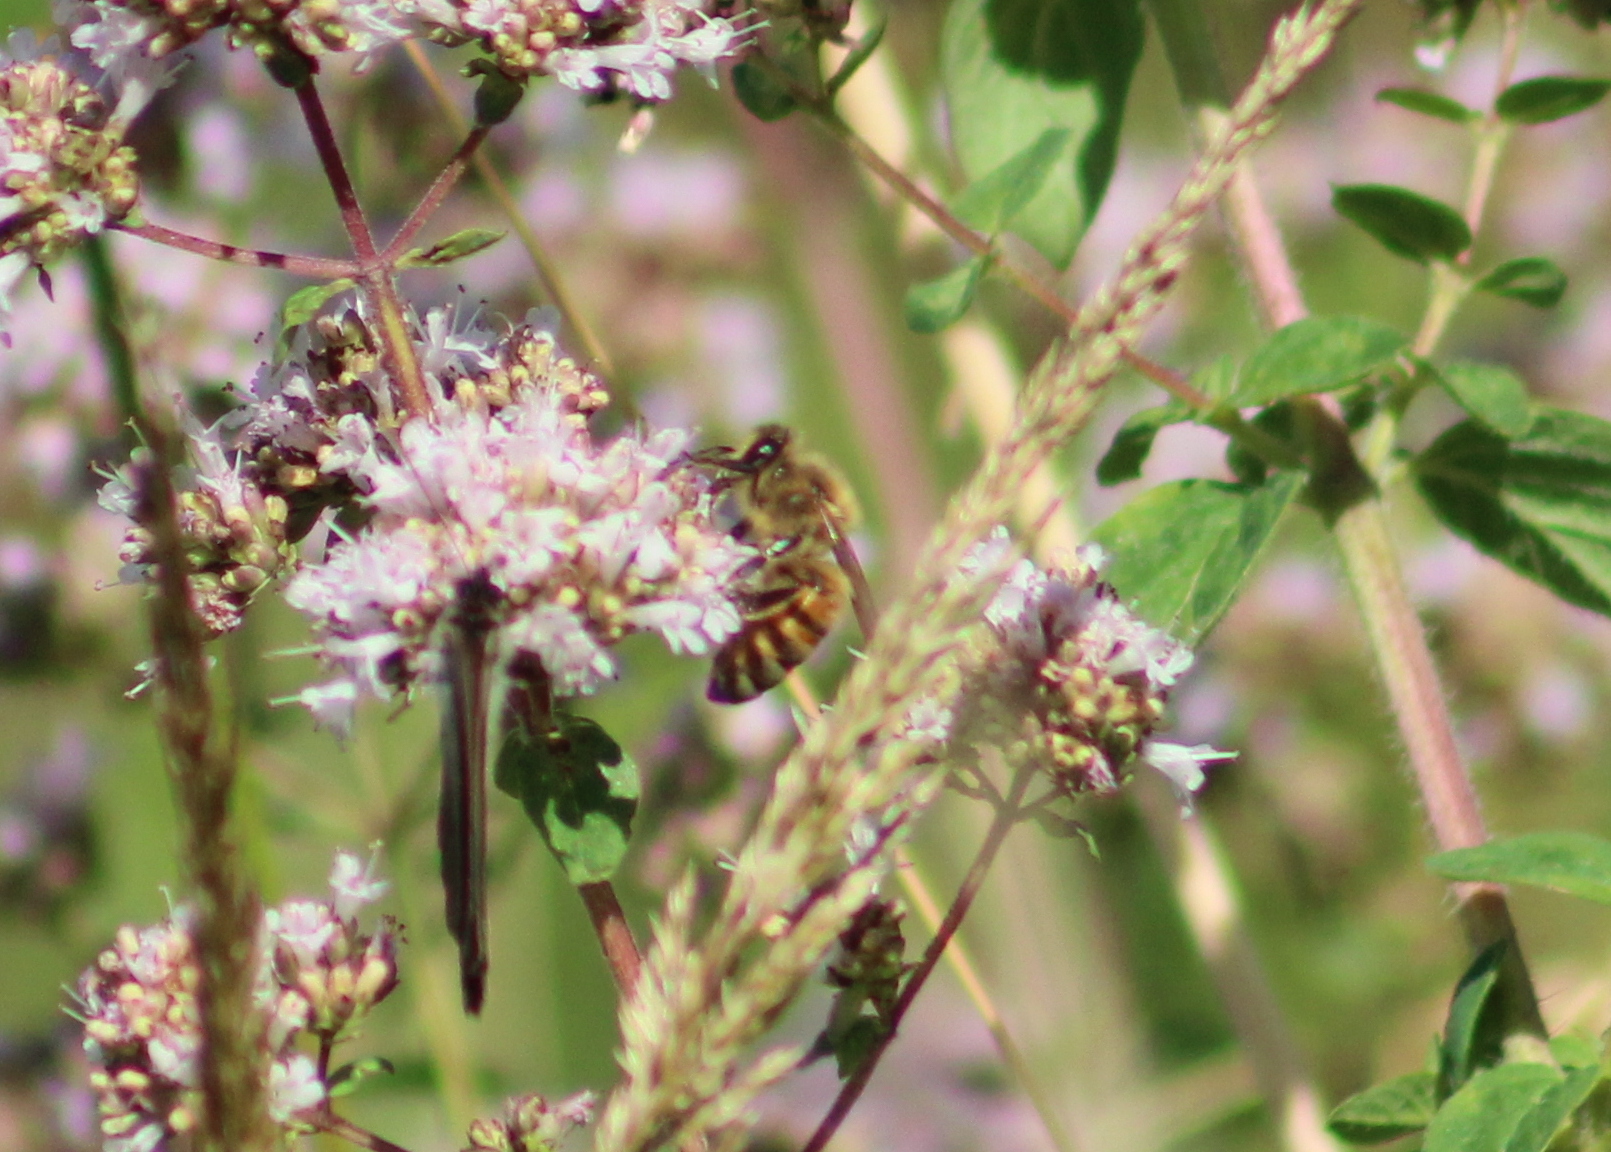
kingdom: Animalia
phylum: Arthropoda
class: Insecta
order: Hymenoptera
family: Apidae
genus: Apis
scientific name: Apis mellifera
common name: Honey bee
